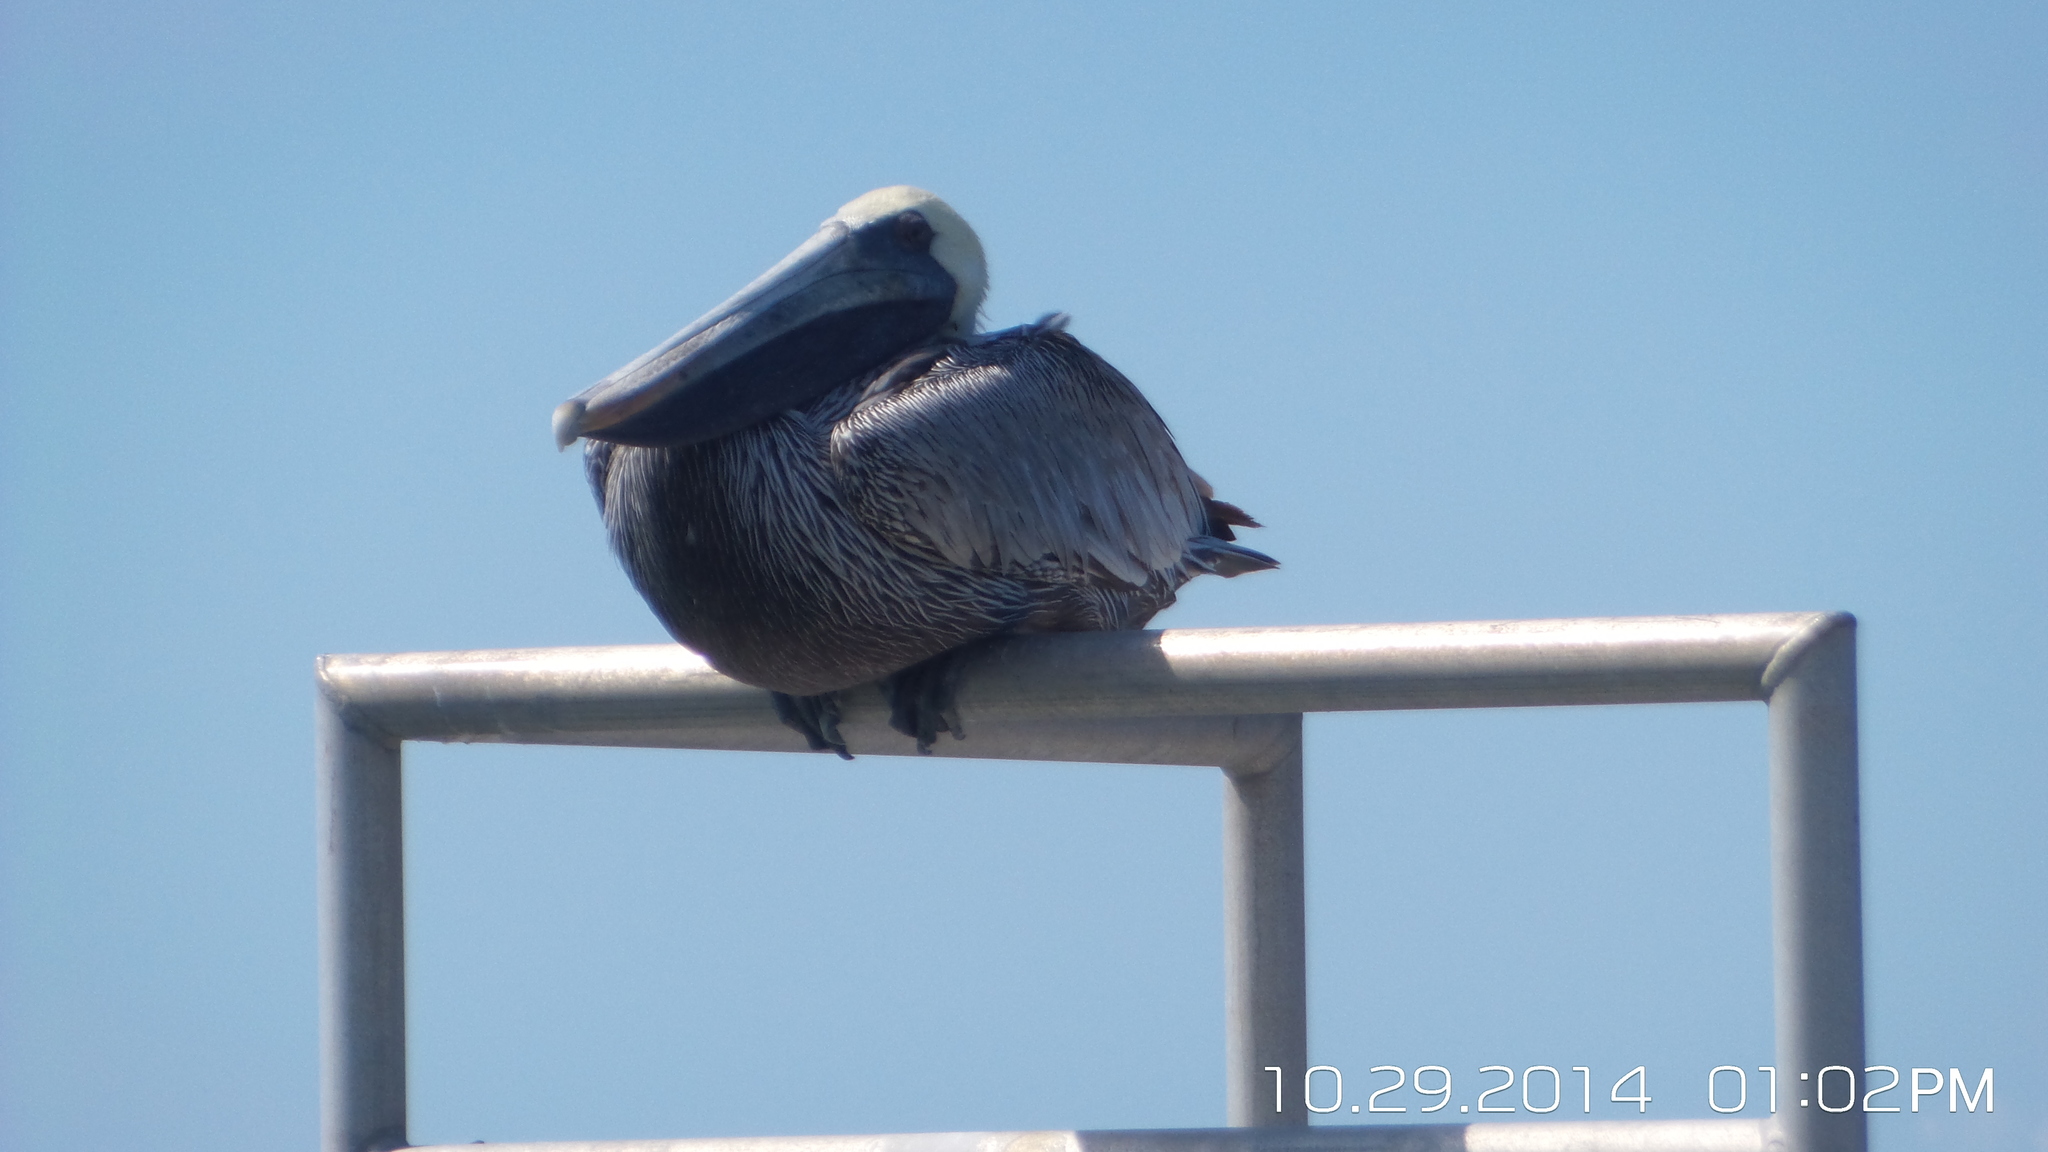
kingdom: Animalia
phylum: Chordata
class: Aves
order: Pelecaniformes
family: Pelecanidae
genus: Pelecanus
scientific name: Pelecanus occidentalis
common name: Brown pelican
